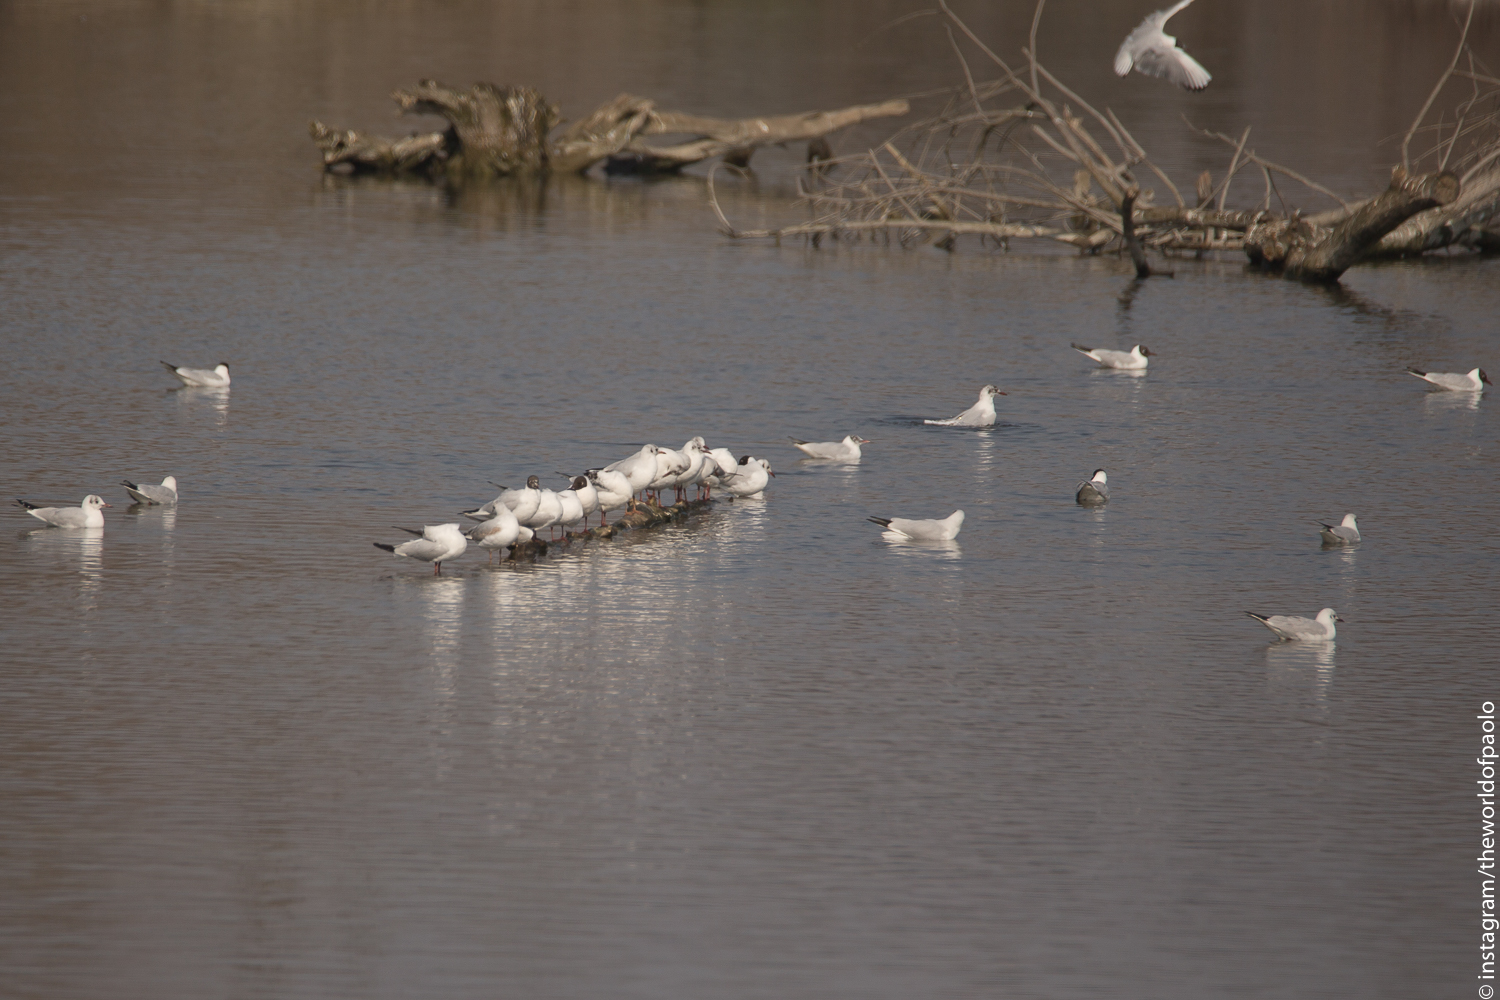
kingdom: Animalia
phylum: Chordata
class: Aves
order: Charadriiformes
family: Laridae
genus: Chroicocephalus
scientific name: Chroicocephalus ridibundus
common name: Black-headed gull
